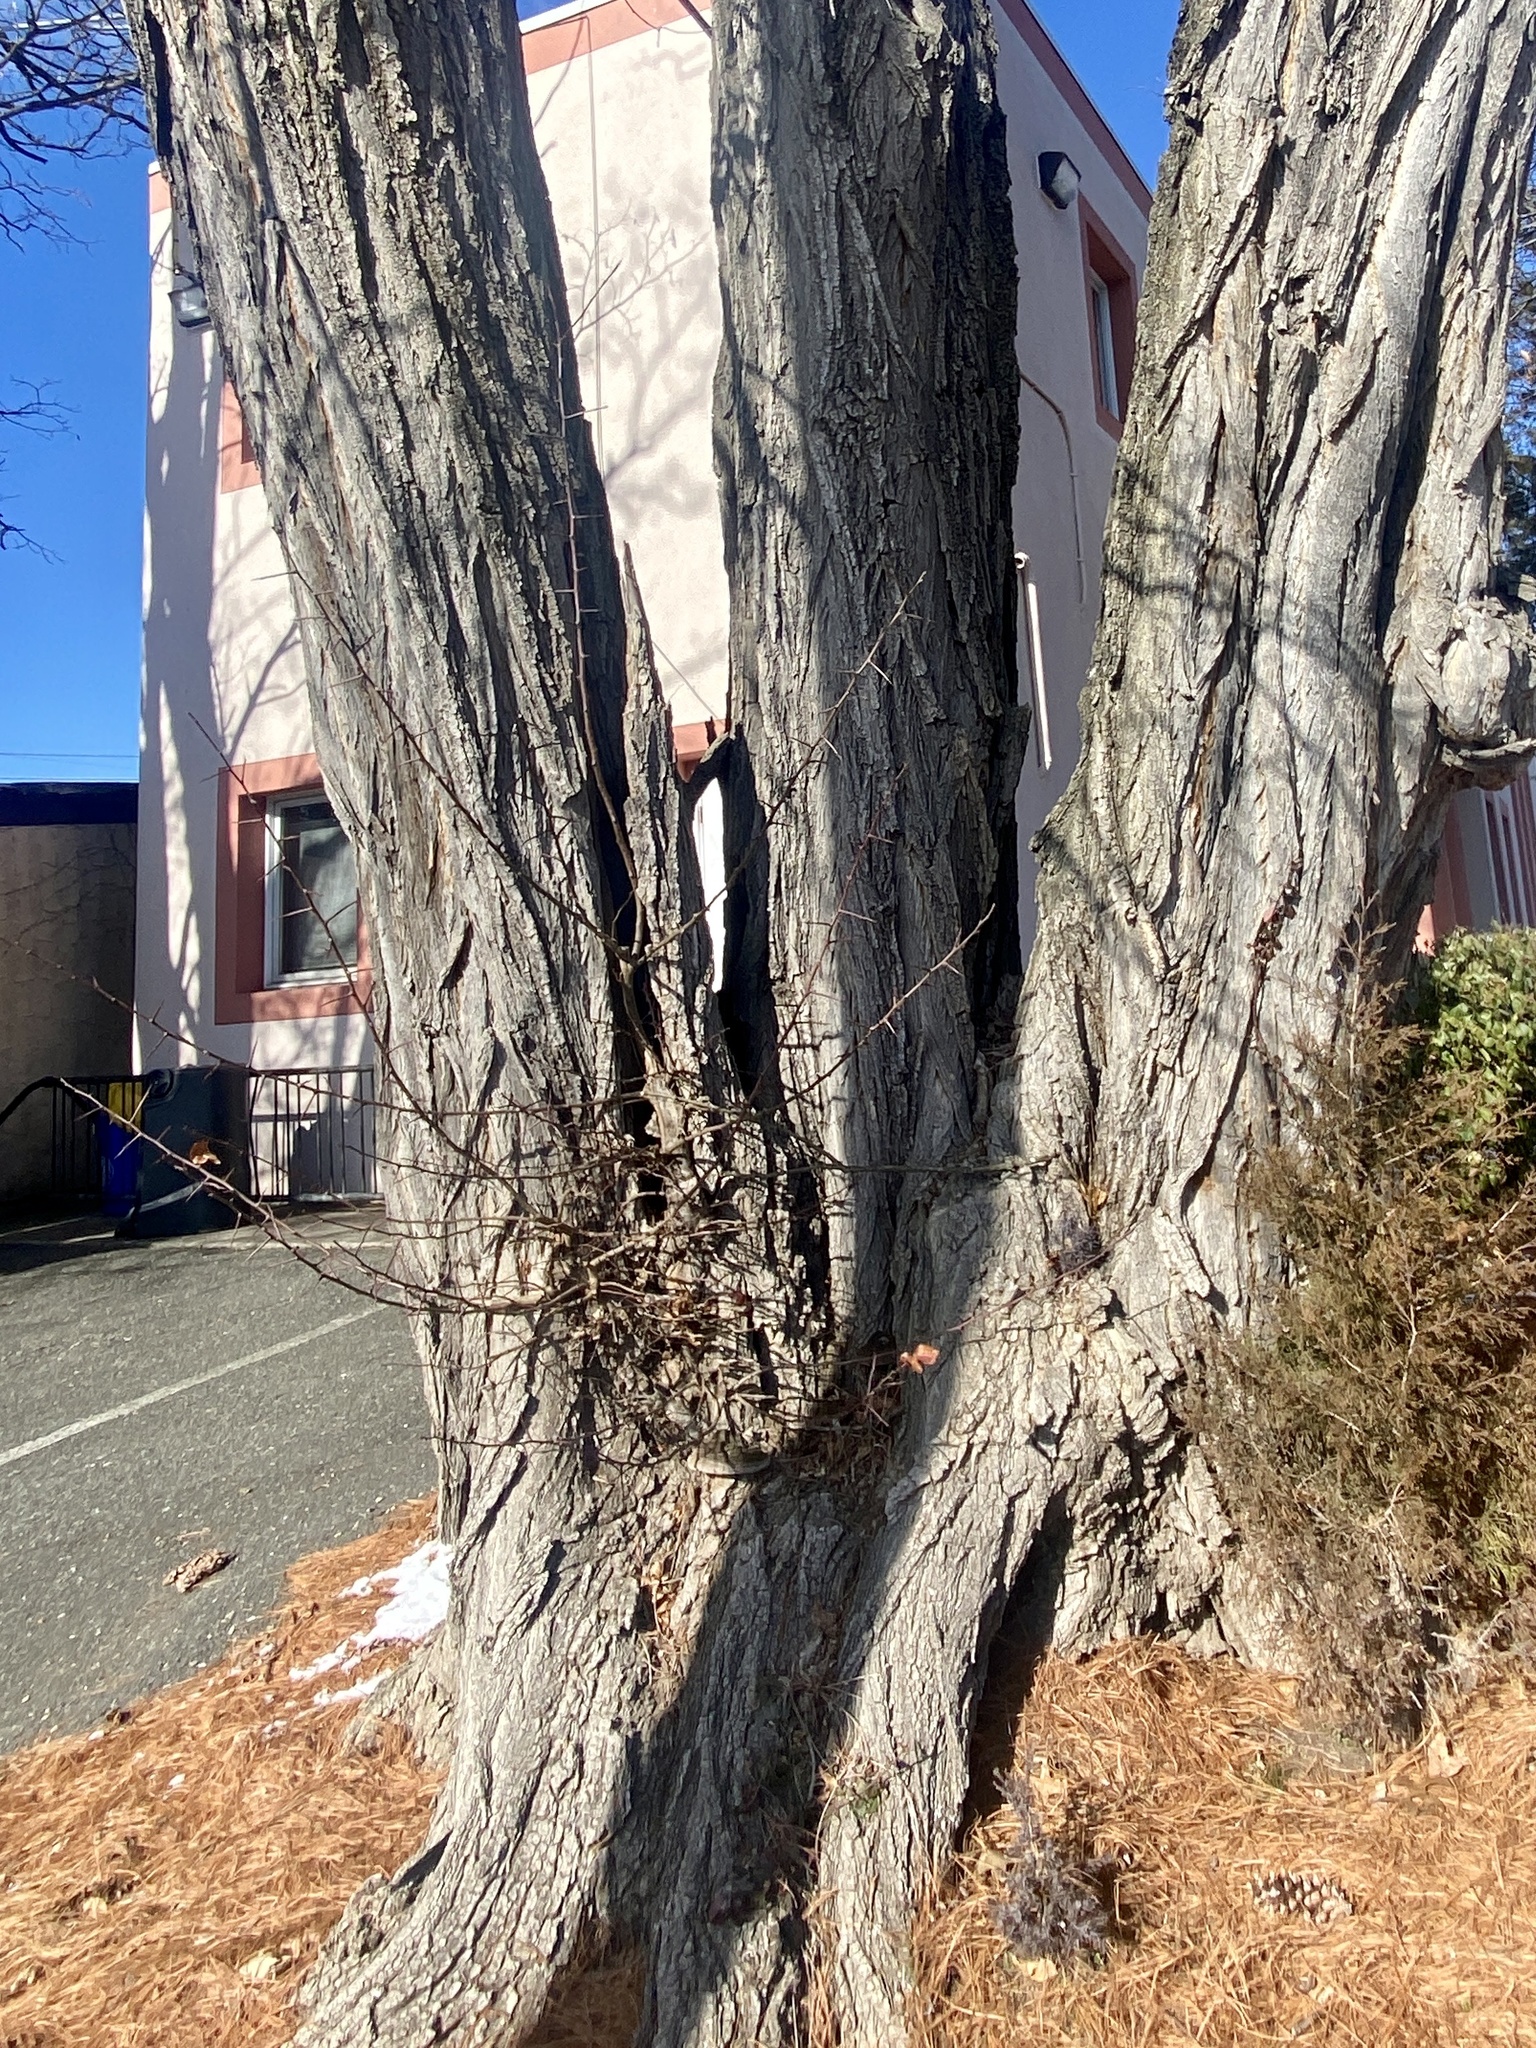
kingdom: Plantae
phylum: Tracheophyta
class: Magnoliopsida
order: Fabales
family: Fabaceae
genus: Robinia
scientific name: Robinia pseudoacacia
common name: Black locust
